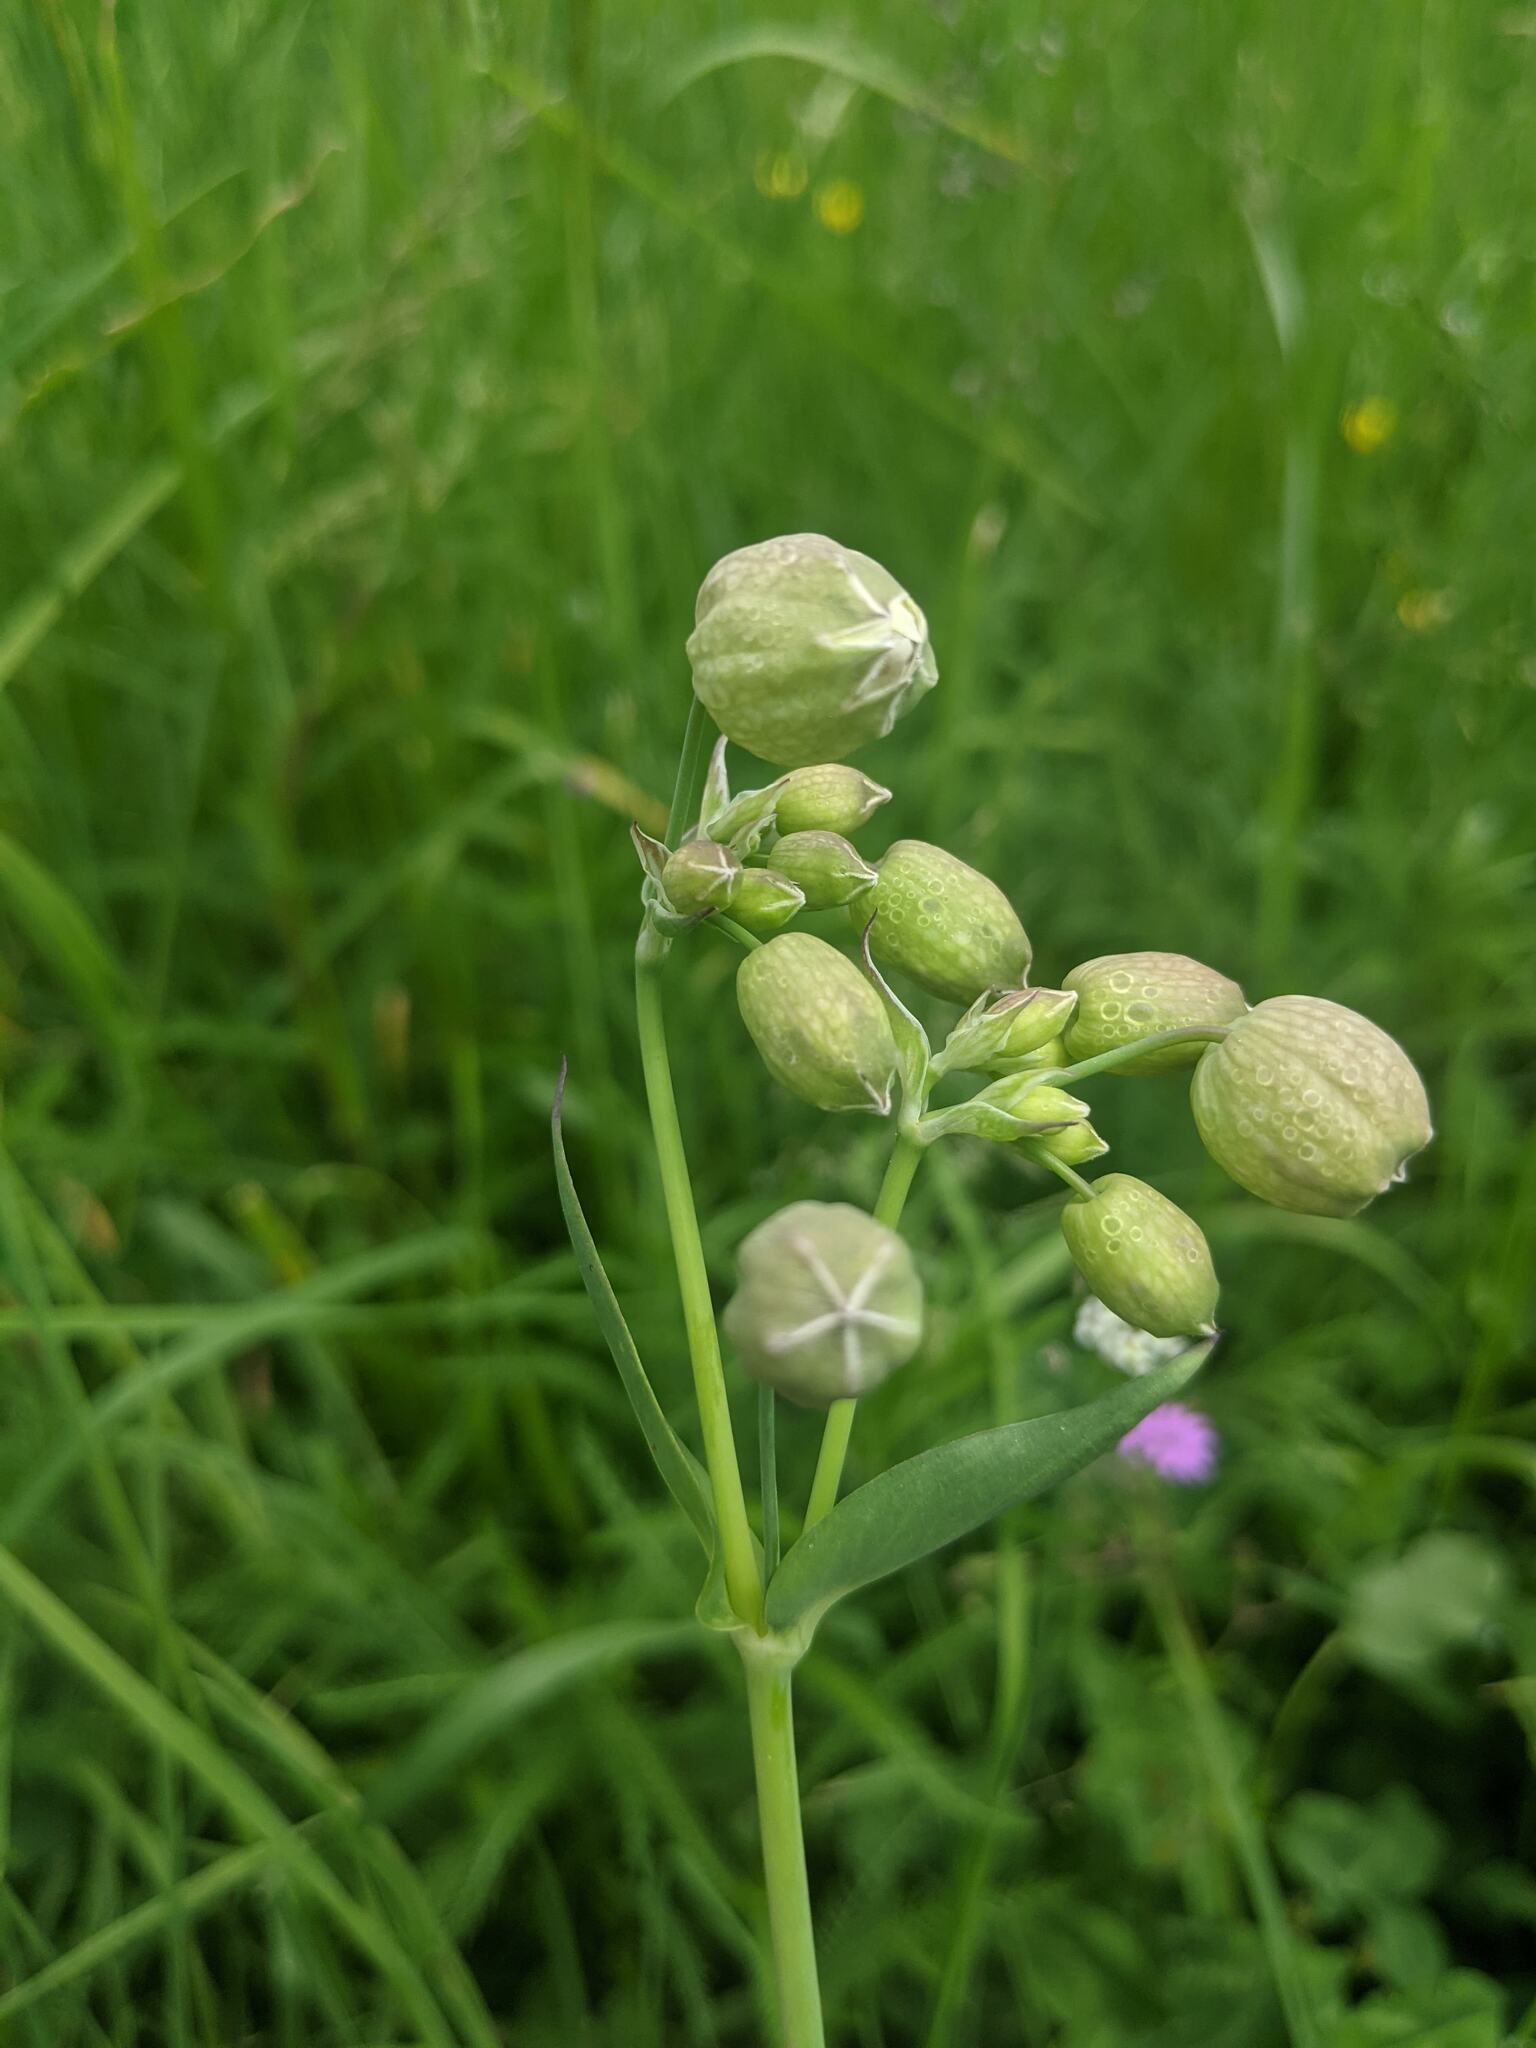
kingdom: Plantae
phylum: Tracheophyta
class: Magnoliopsida
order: Caryophyllales
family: Caryophyllaceae
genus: Silene
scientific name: Silene vulgaris
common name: Bladder campion
